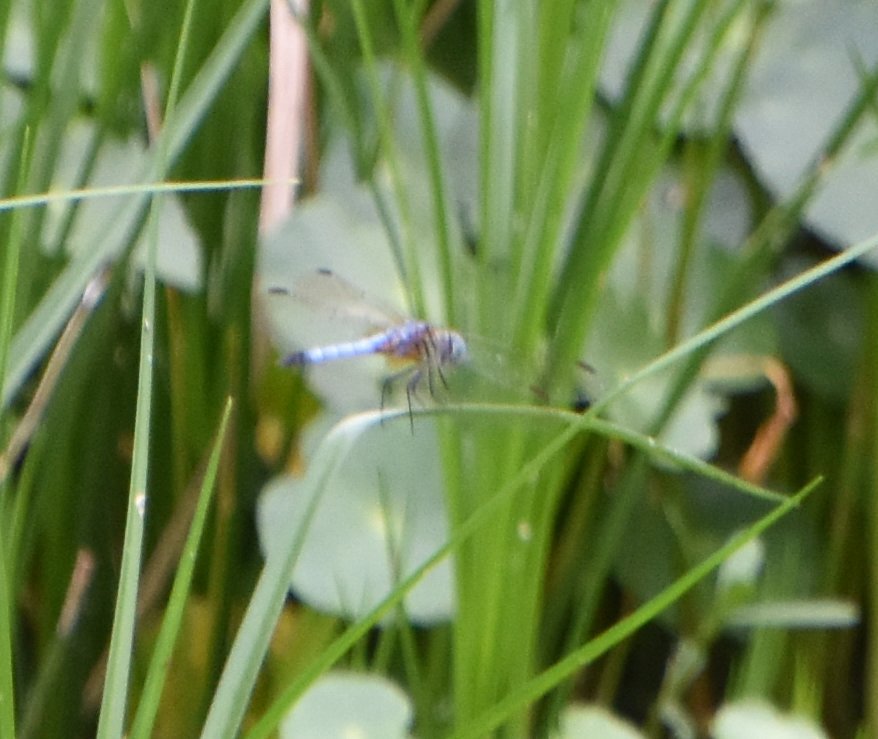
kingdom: Animalia
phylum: Arthropoda
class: Insecta
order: Odonata
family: Libellulidae
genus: Pachydiplax
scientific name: Pachydiplax longipennis
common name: Blue dasher
